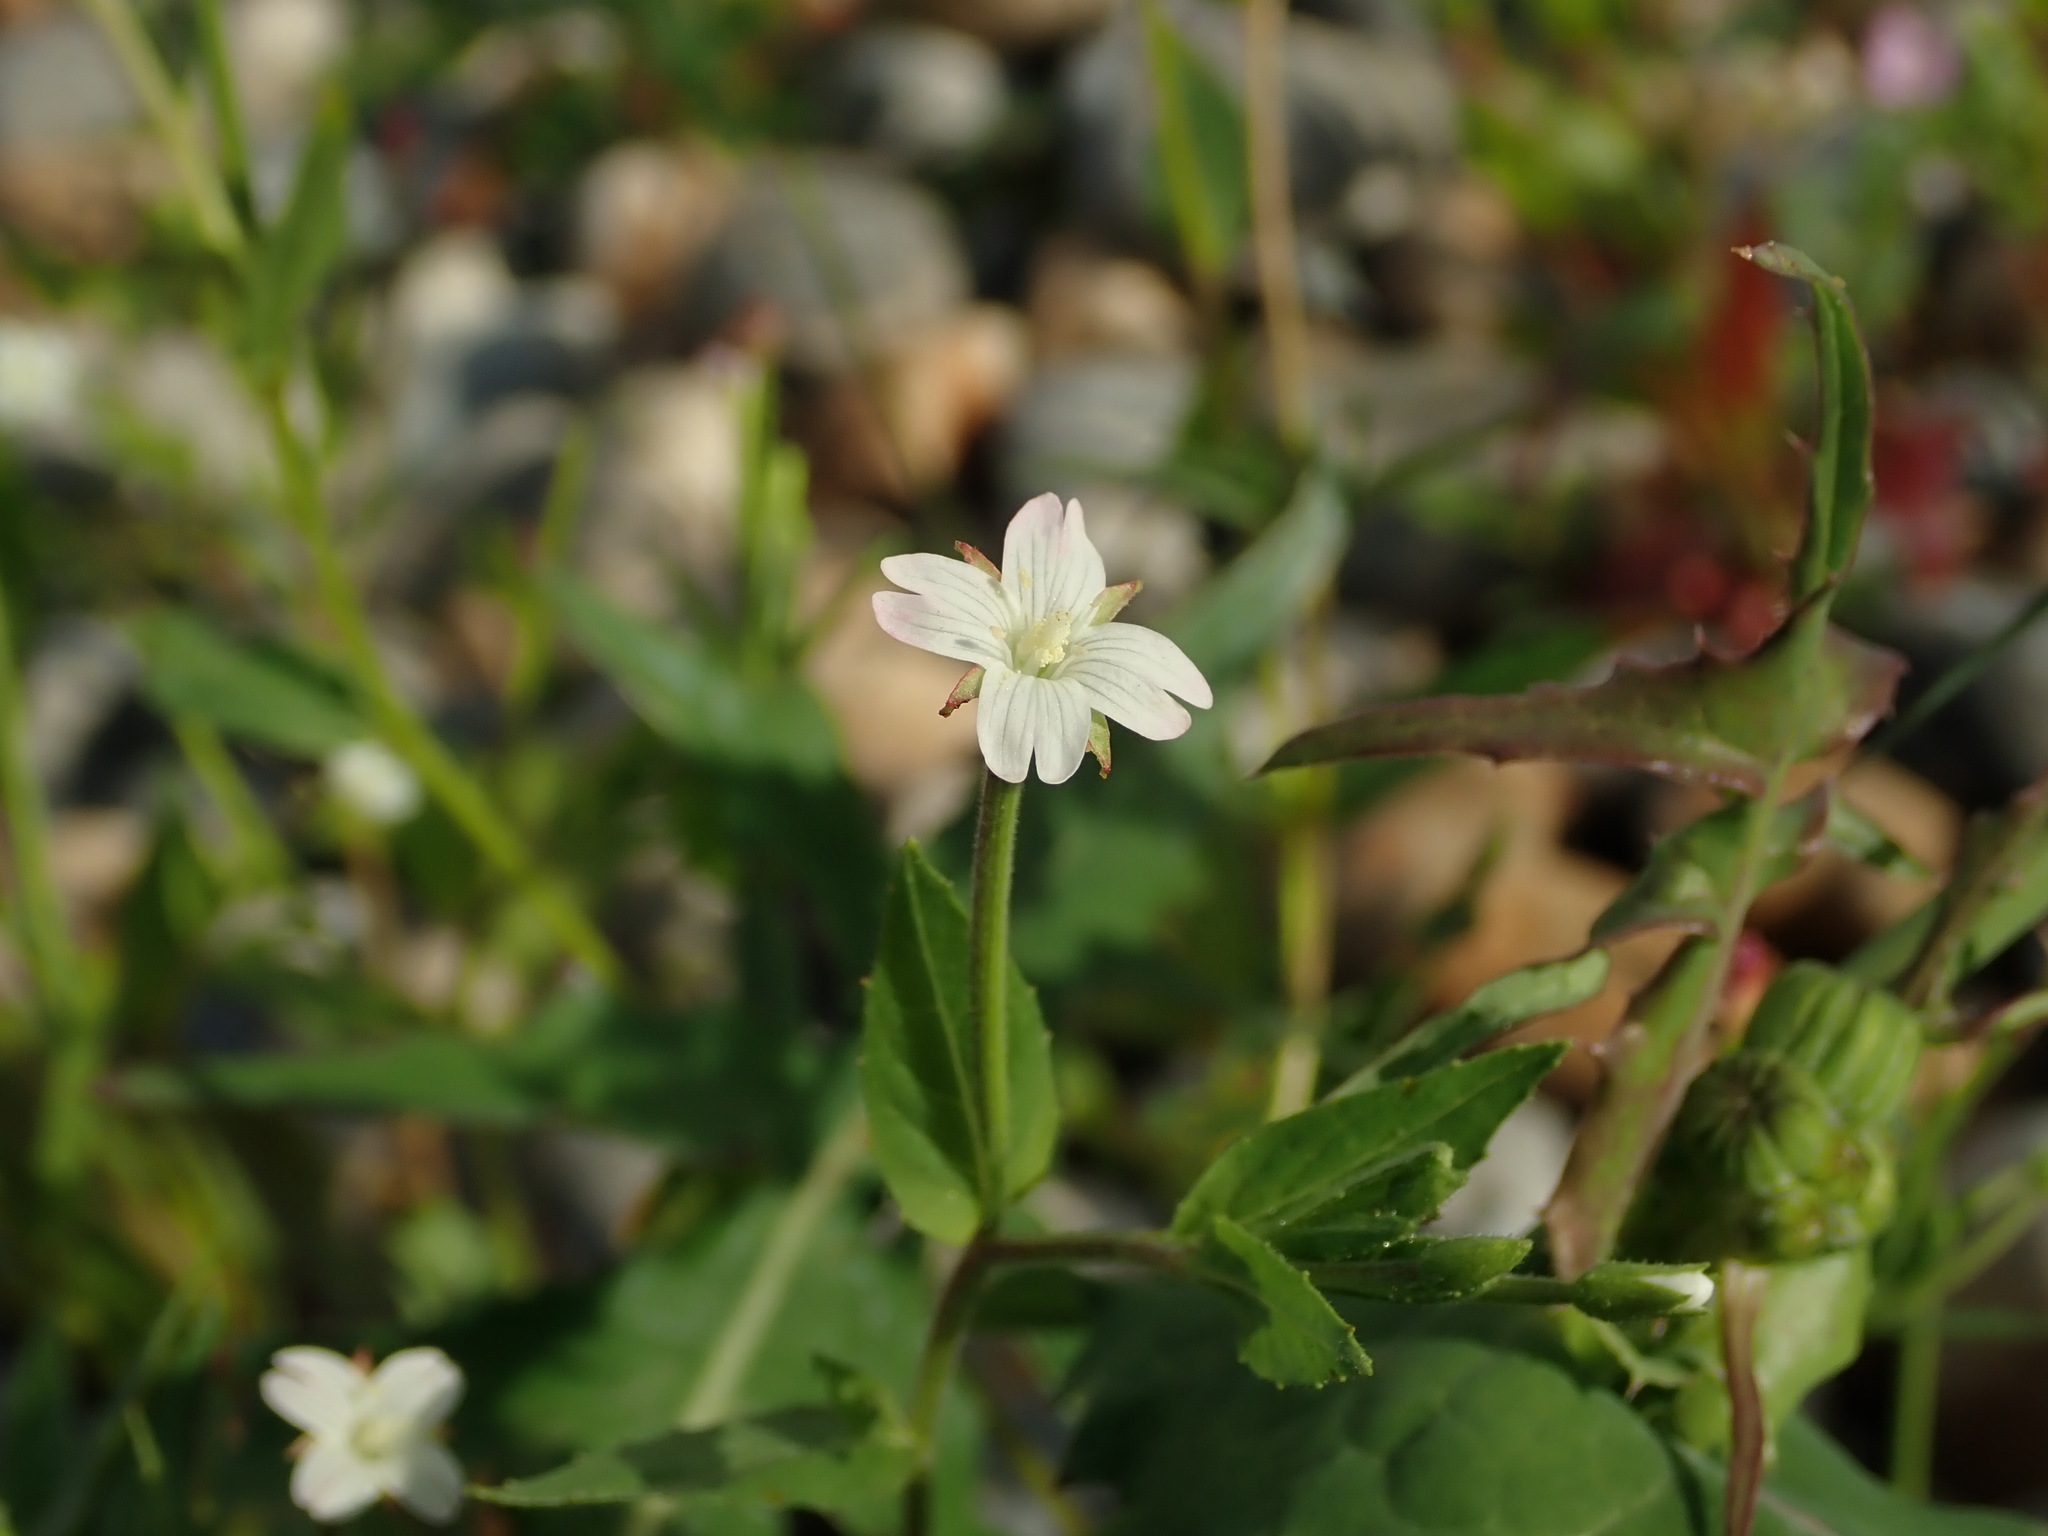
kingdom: Plantae
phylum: Tracheophyta
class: Magnoliopsida
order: Myrtales
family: Onagraceae
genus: Epilobium
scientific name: Epilobium ciliatum
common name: American willowherb
